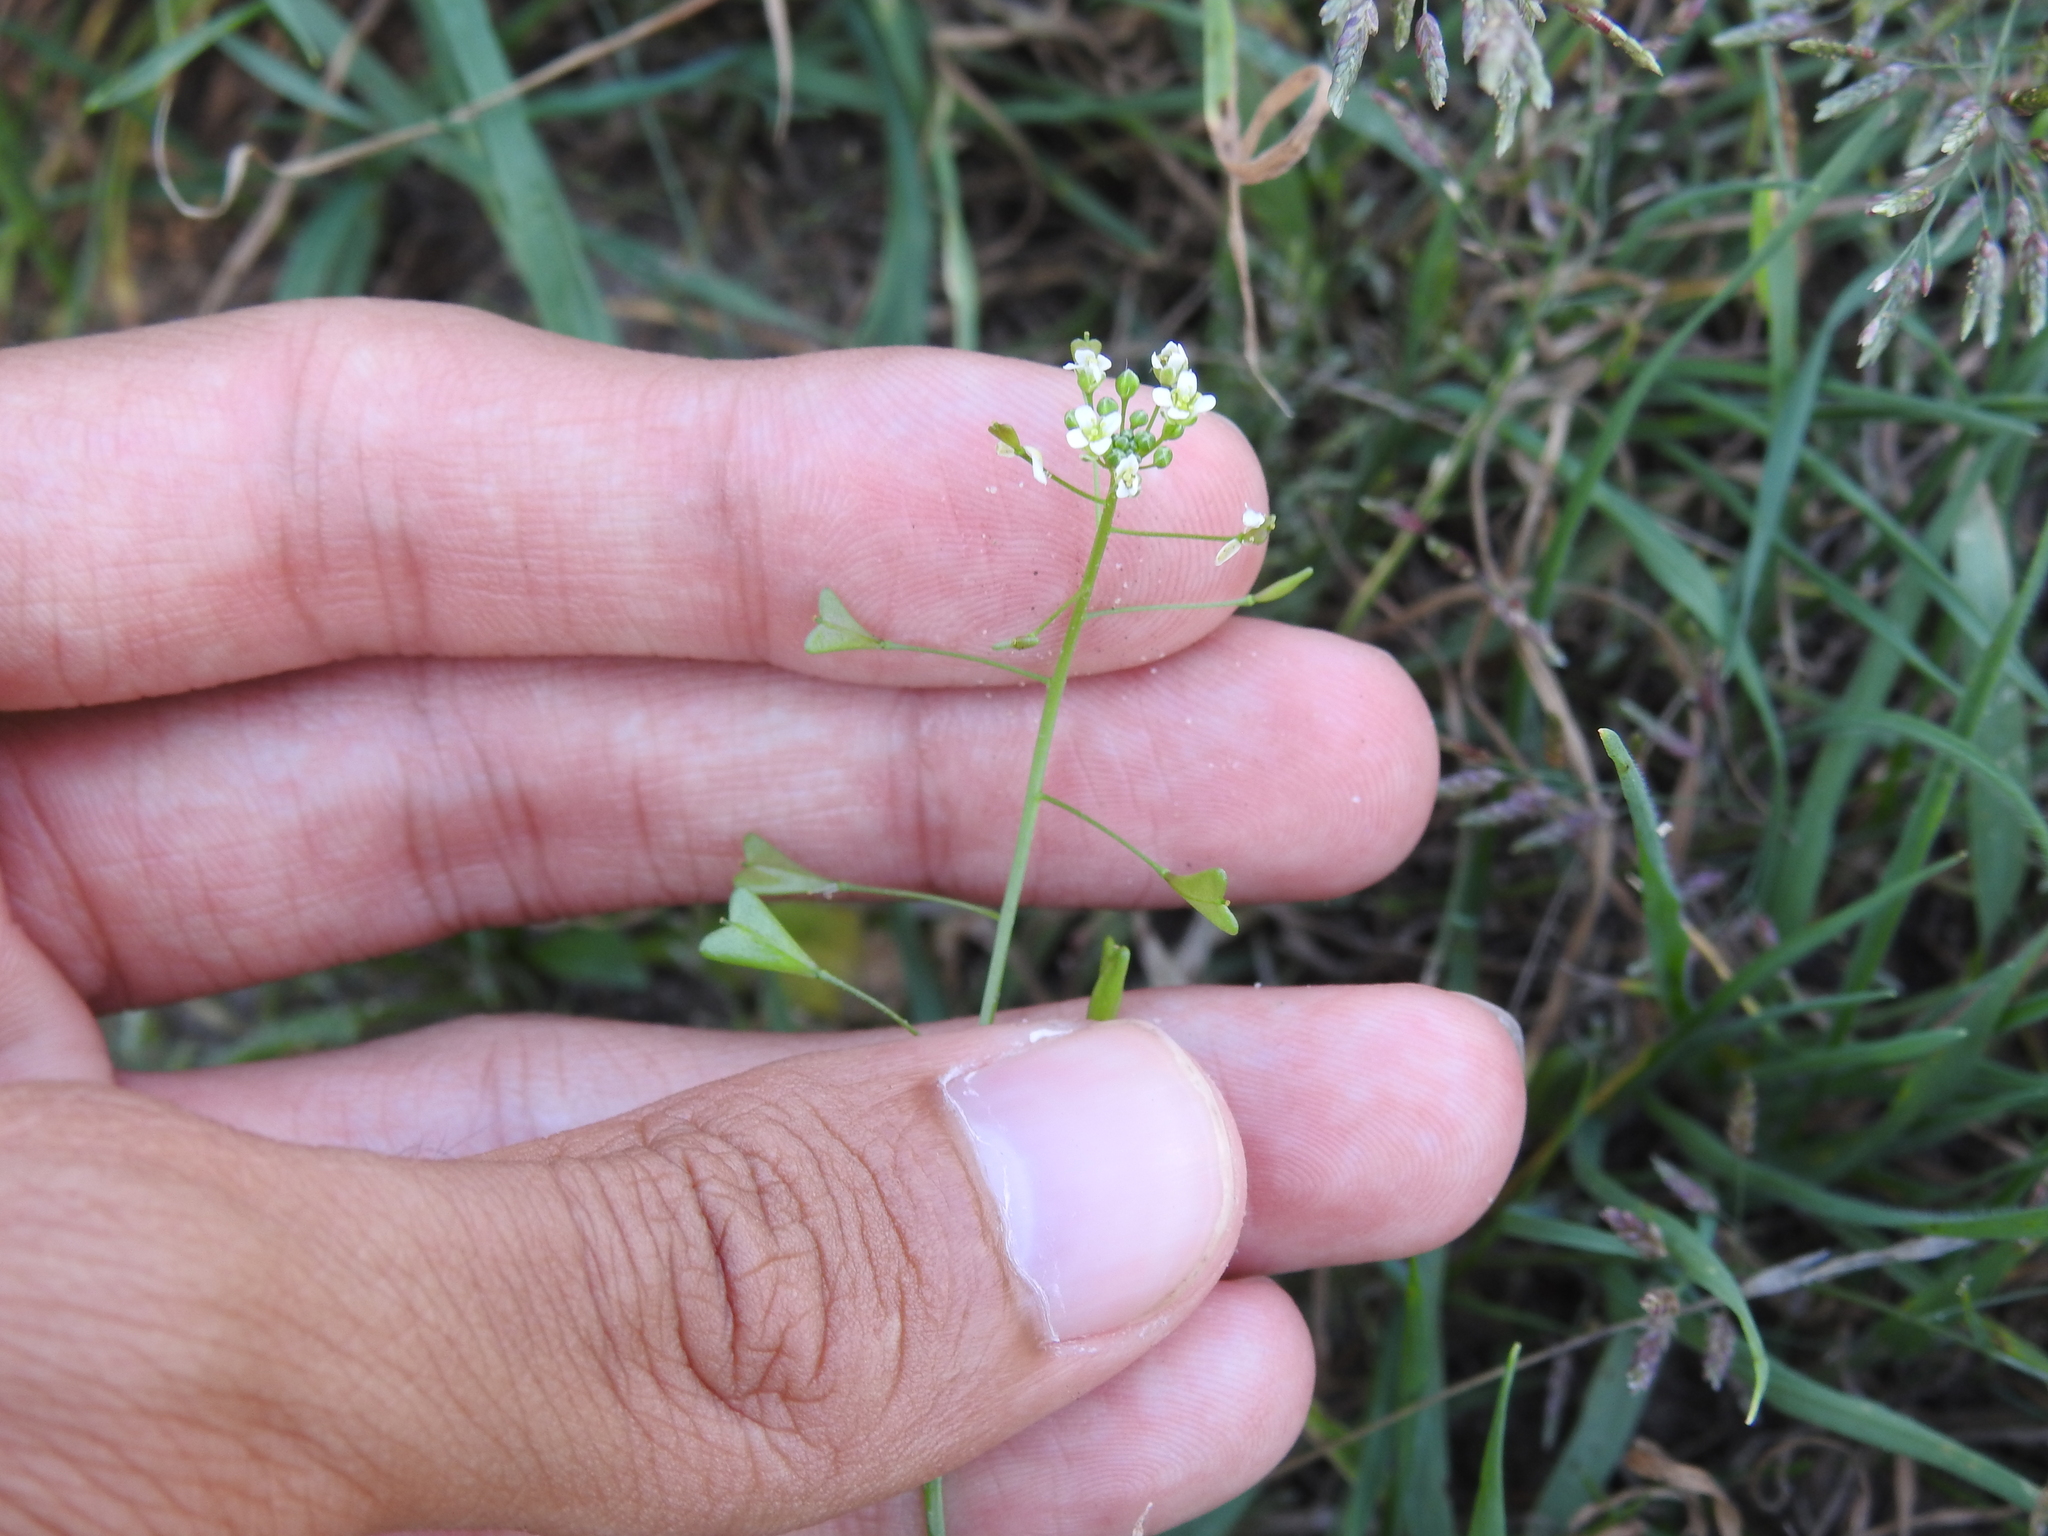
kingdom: Plantae
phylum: Tracheophyta
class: Magnoliopsida
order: Brassicales
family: Brassicaceae
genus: Capsella
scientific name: Capsella bursa-pastoris
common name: Shepherd's purse
